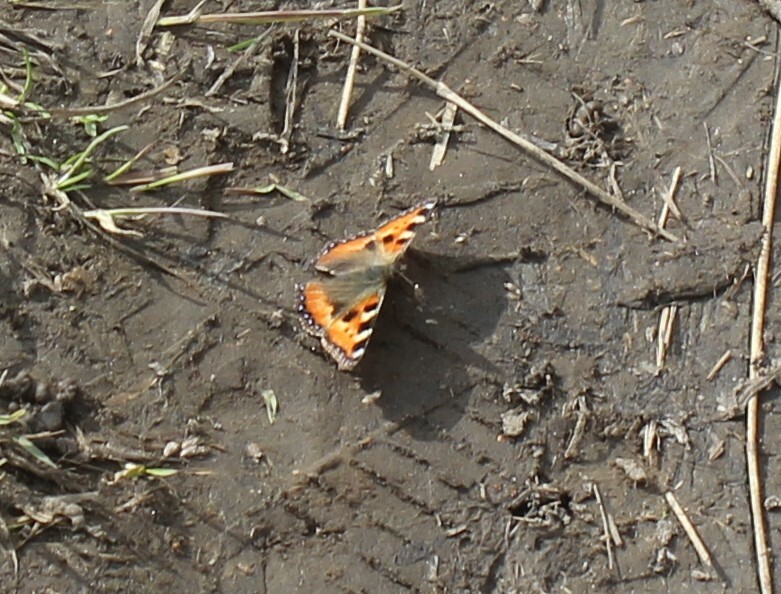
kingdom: Animalia
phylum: Arthropoda
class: Insecta
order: Lepidoptera
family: Nymphalidae
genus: Aglais
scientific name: Aglais urticae
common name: Small tortoiseshell
